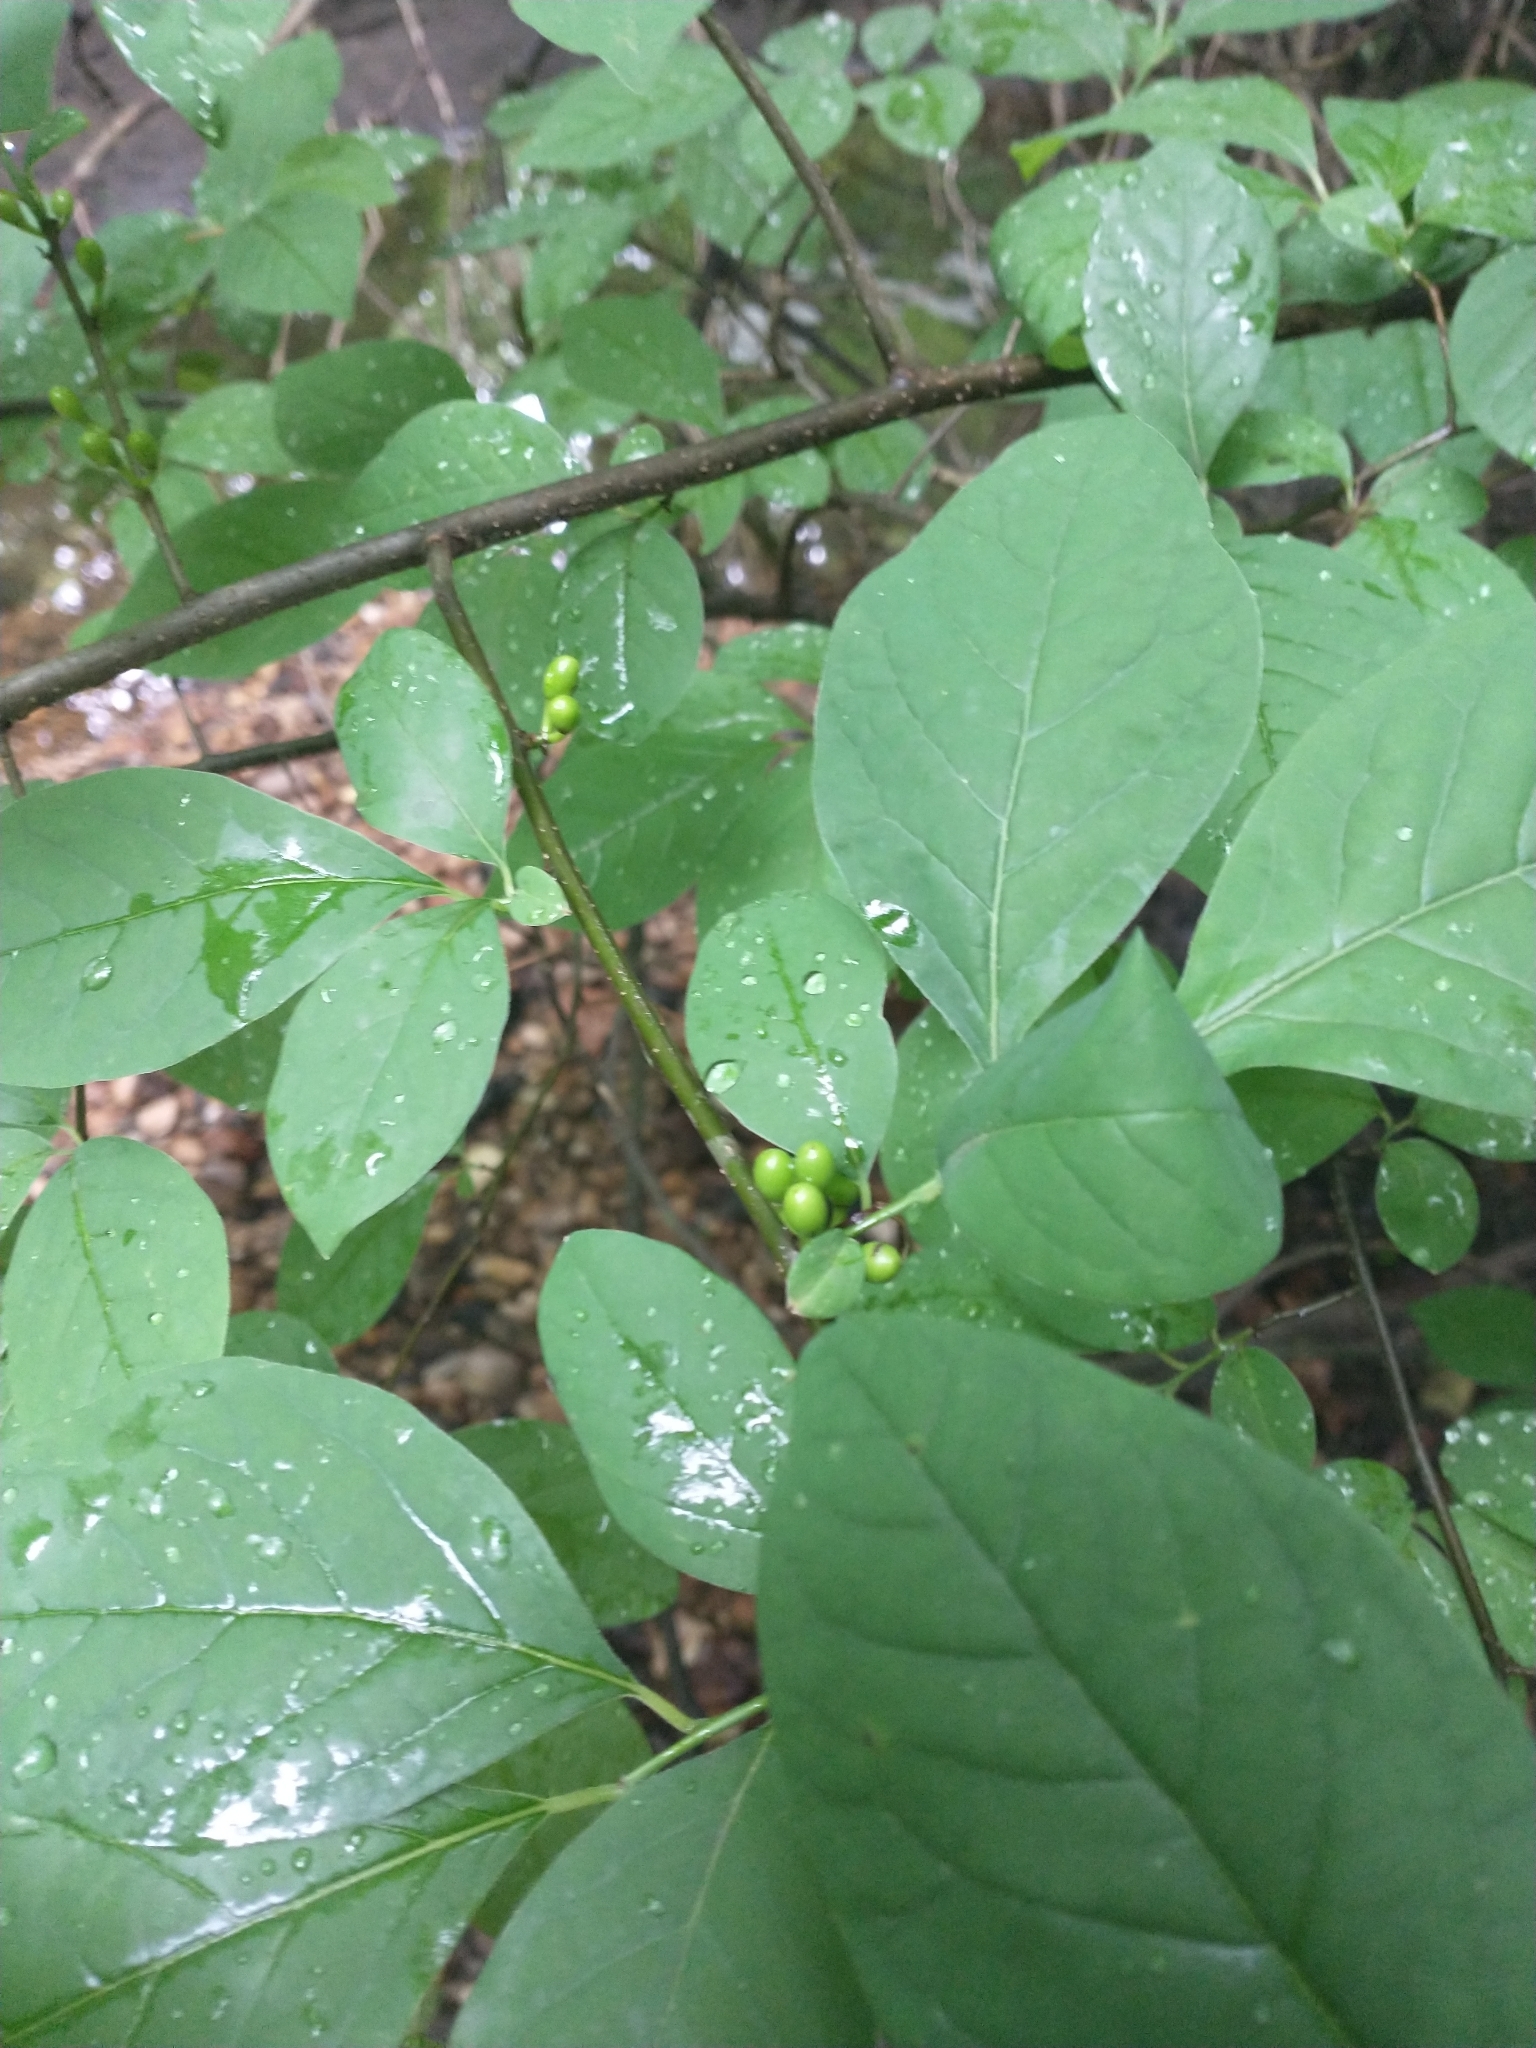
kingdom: Plantae
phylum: Tracheophyta
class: Magnoliopsida
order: Laurales
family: Lauraceae
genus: Lindera
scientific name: Lindera benzoin
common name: Spicebush
